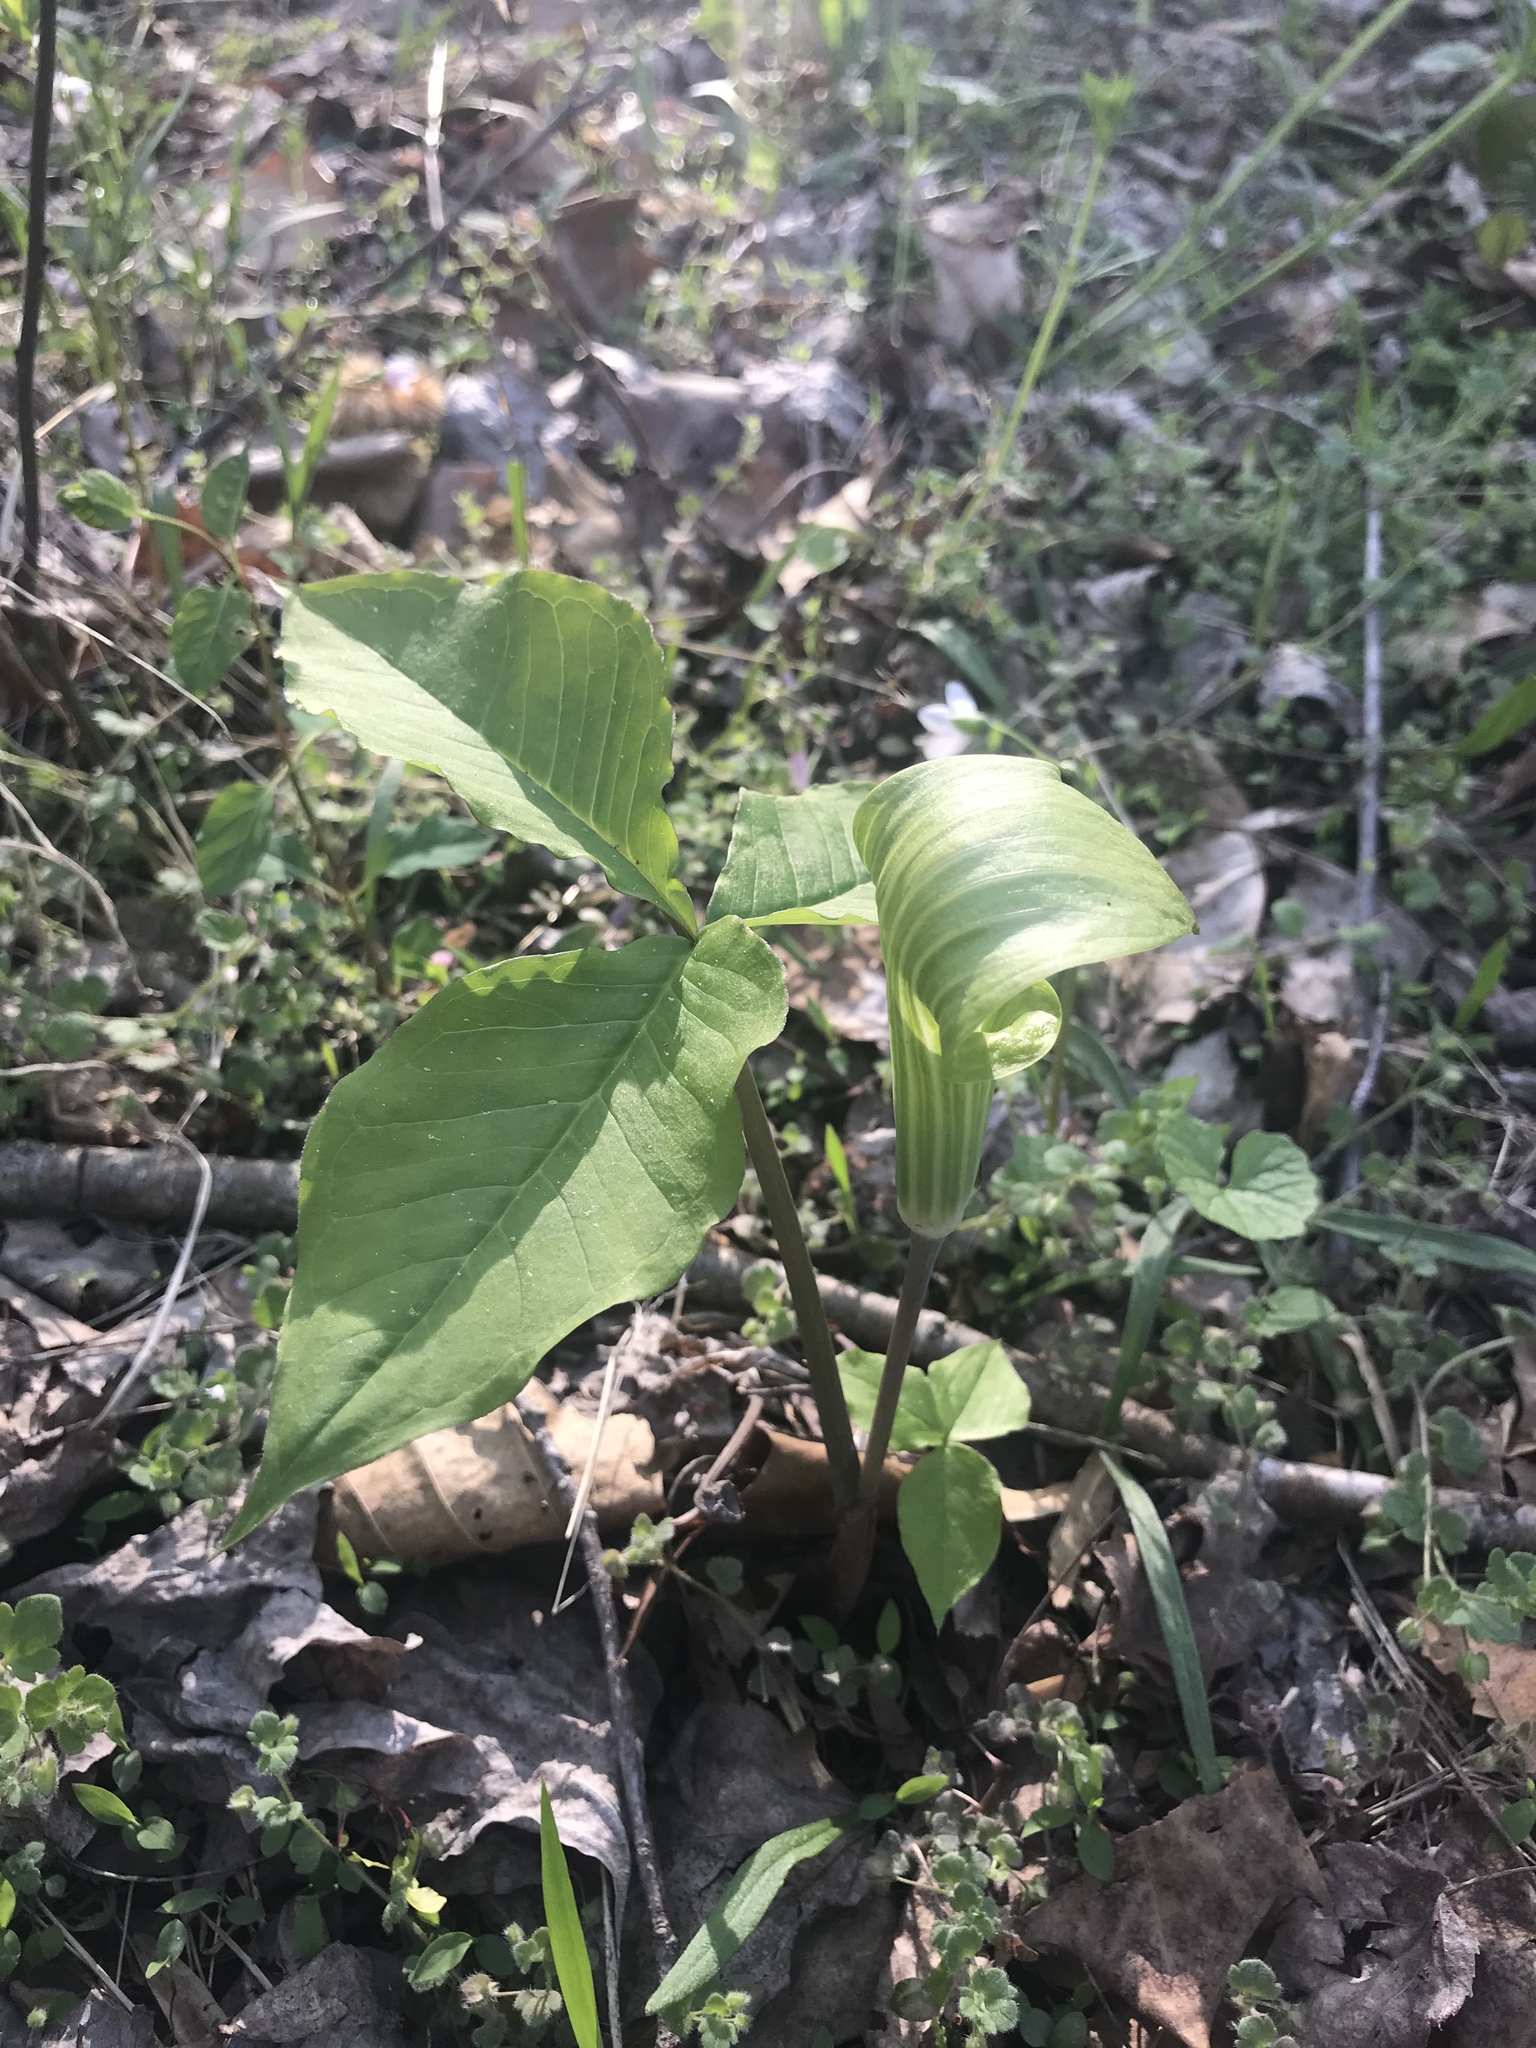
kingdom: Plantae
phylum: Tracheophyta
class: Liliopsida
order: Alismatales
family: Araceae
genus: Arisaema
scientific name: Arisaema triphyllum
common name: Jack-in-the-pulpit
